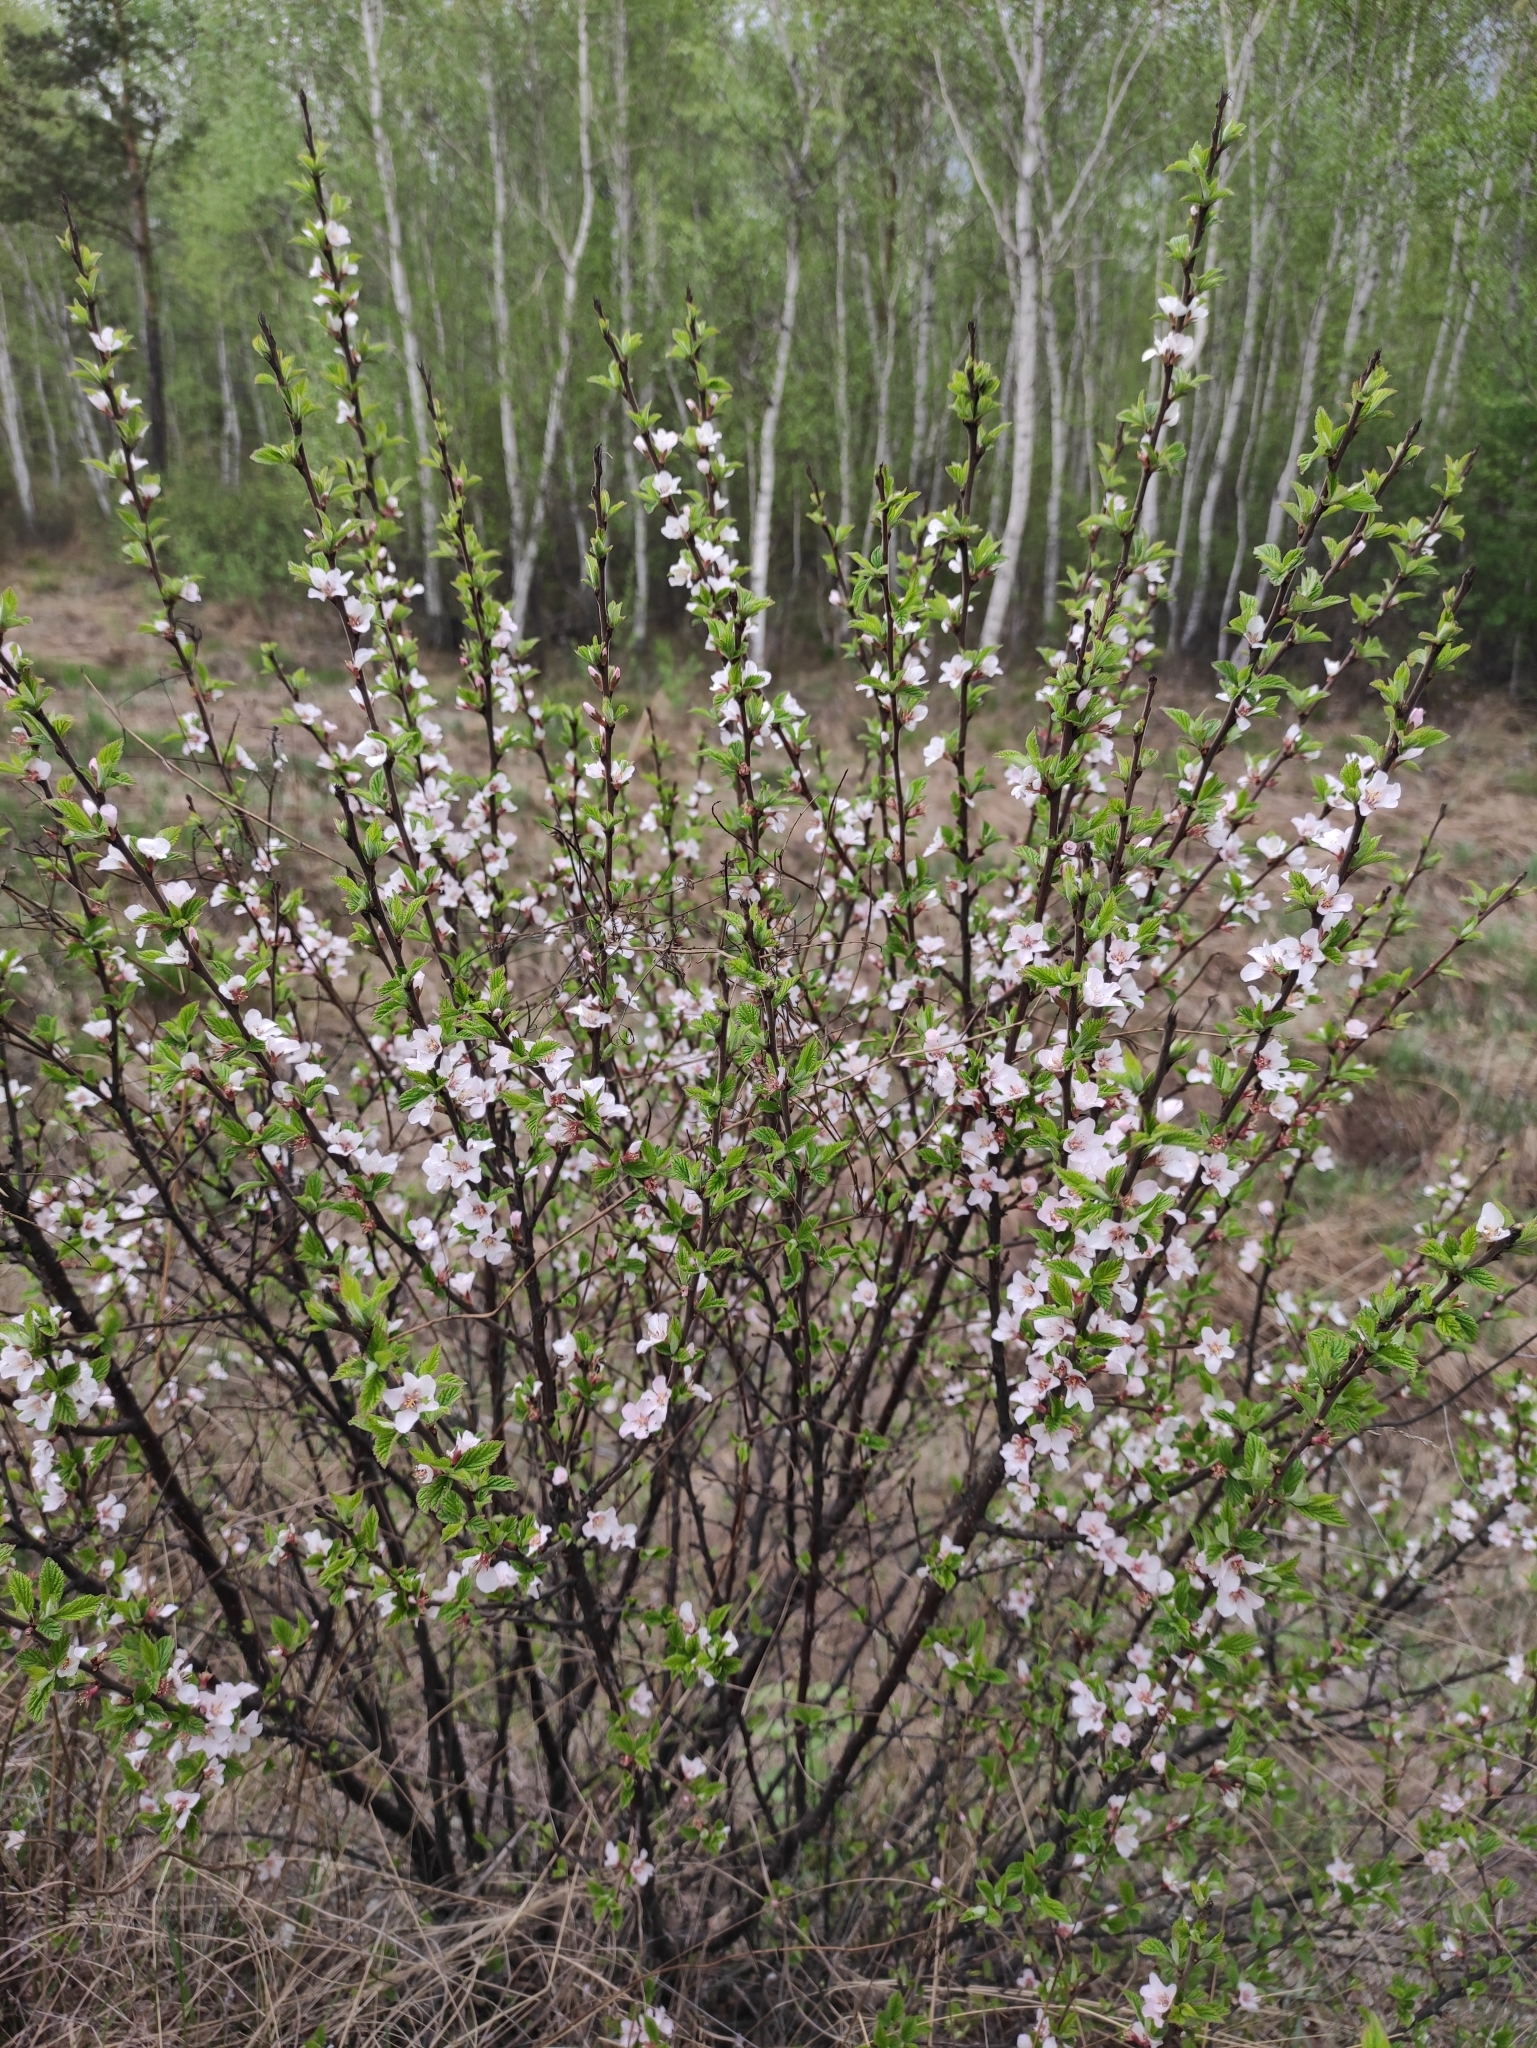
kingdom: Plantae
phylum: Tracheophyta
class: Magnoliopsida
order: Rosales
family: Rosaceae
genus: Prunus
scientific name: Prunus tomentosa
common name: Nanking cherry
